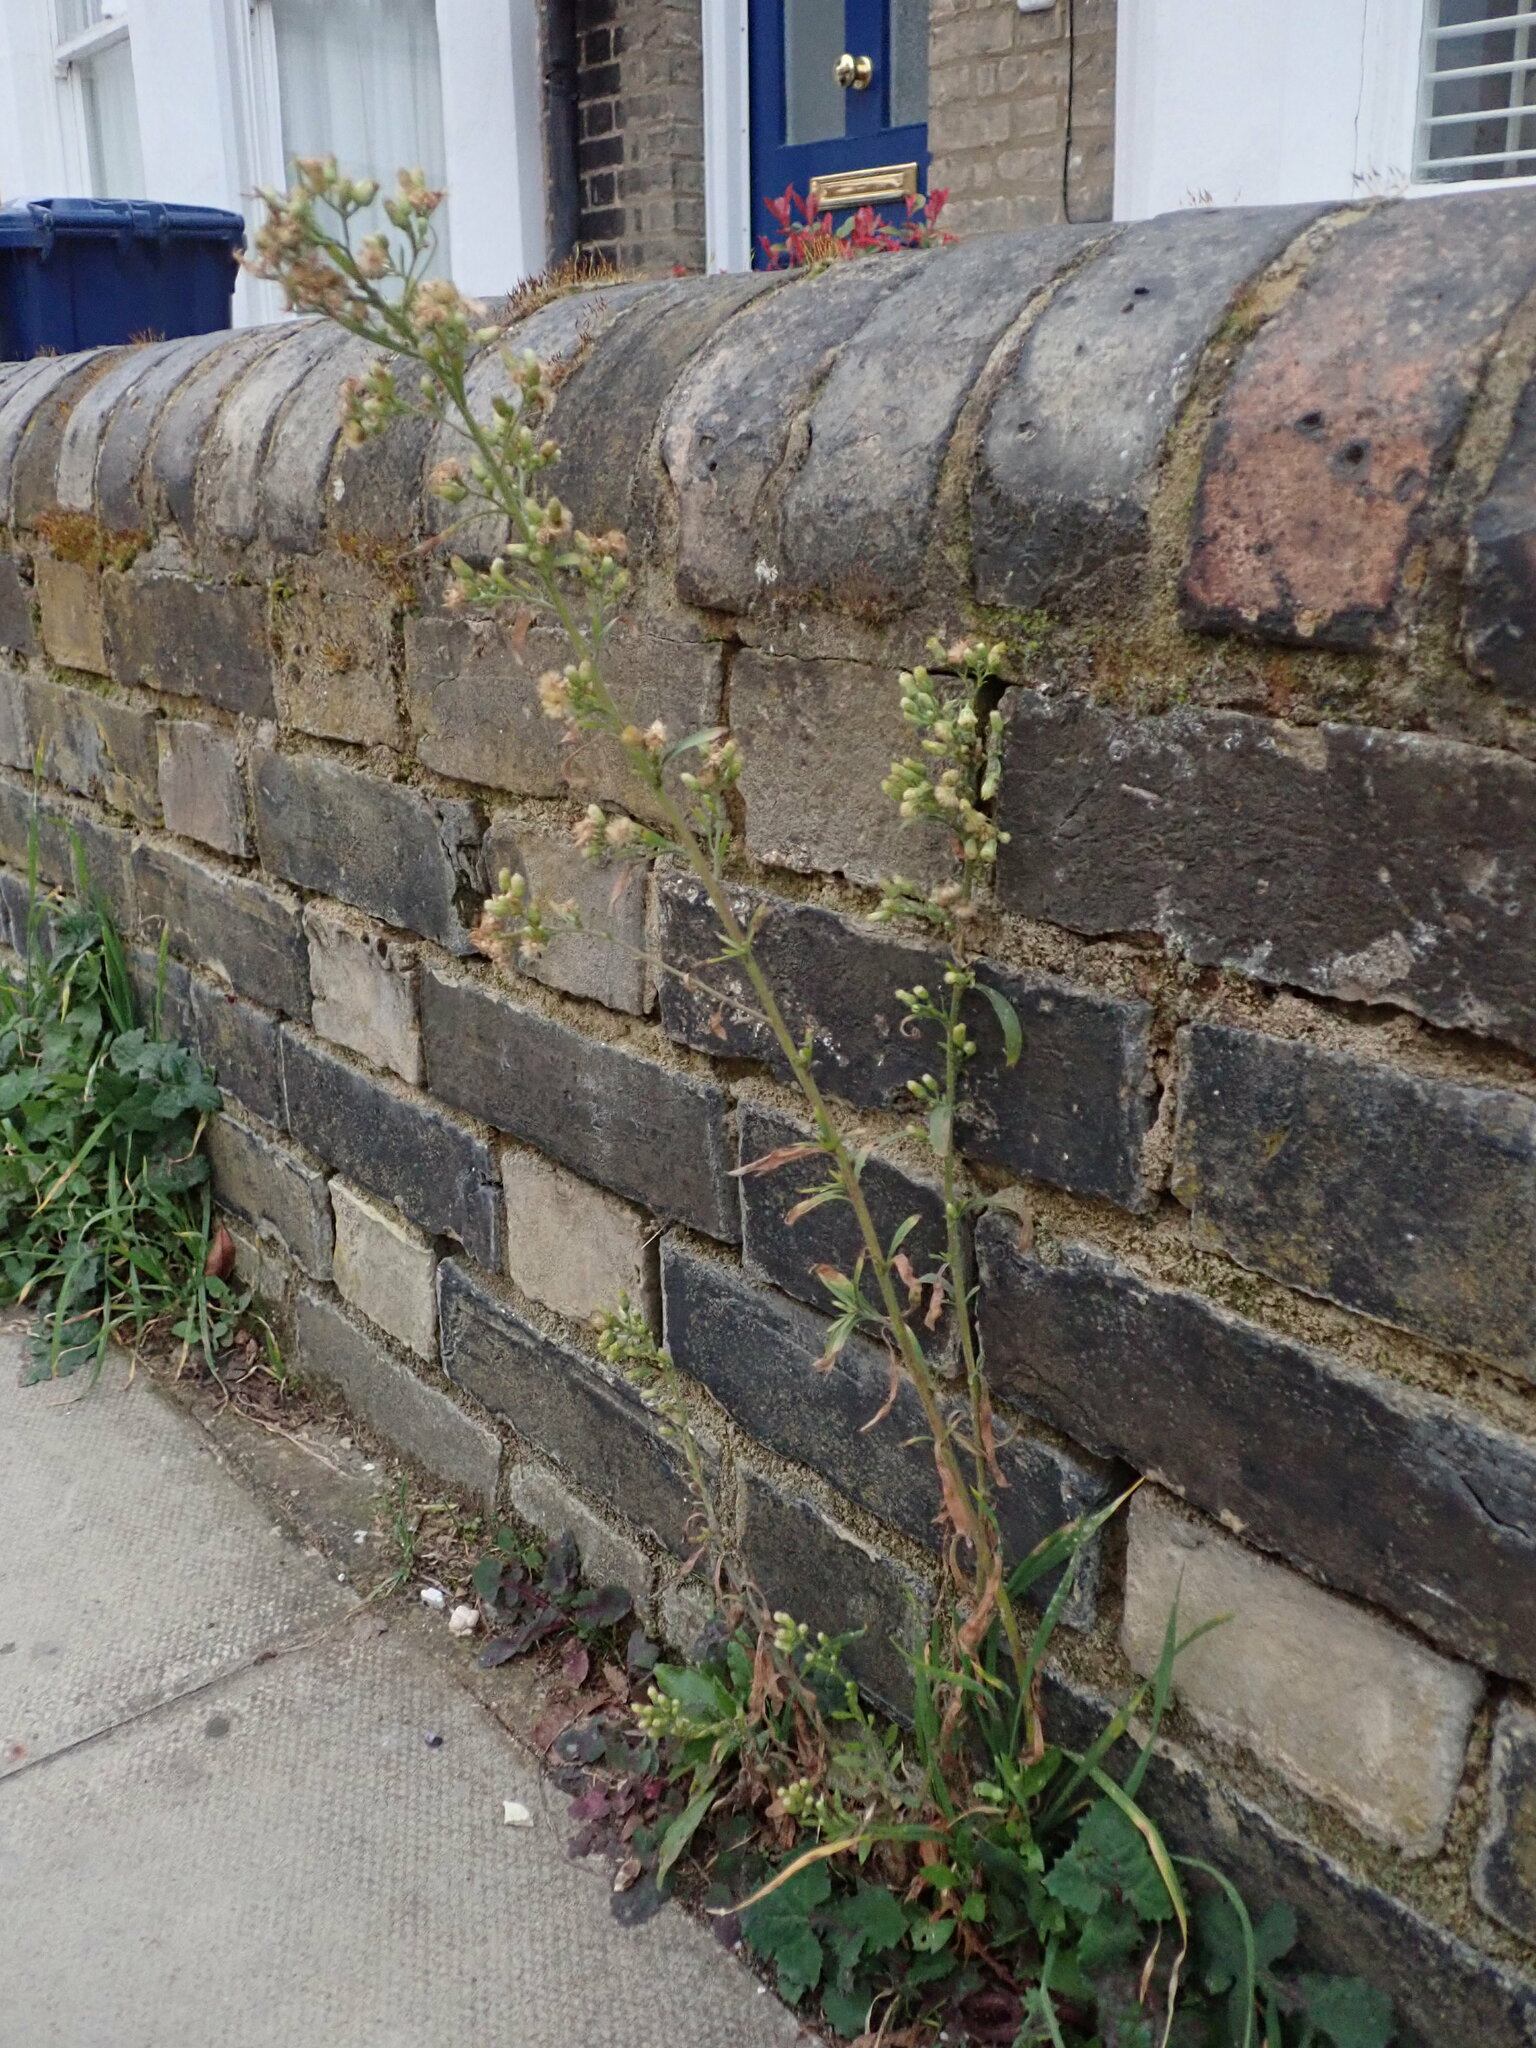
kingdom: Plantae
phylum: Tracheophyta
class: Magnoliopsida
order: Asterales
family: Asteraceae
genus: Erigeron
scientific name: Erigeron sumatrensis
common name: Daisy
